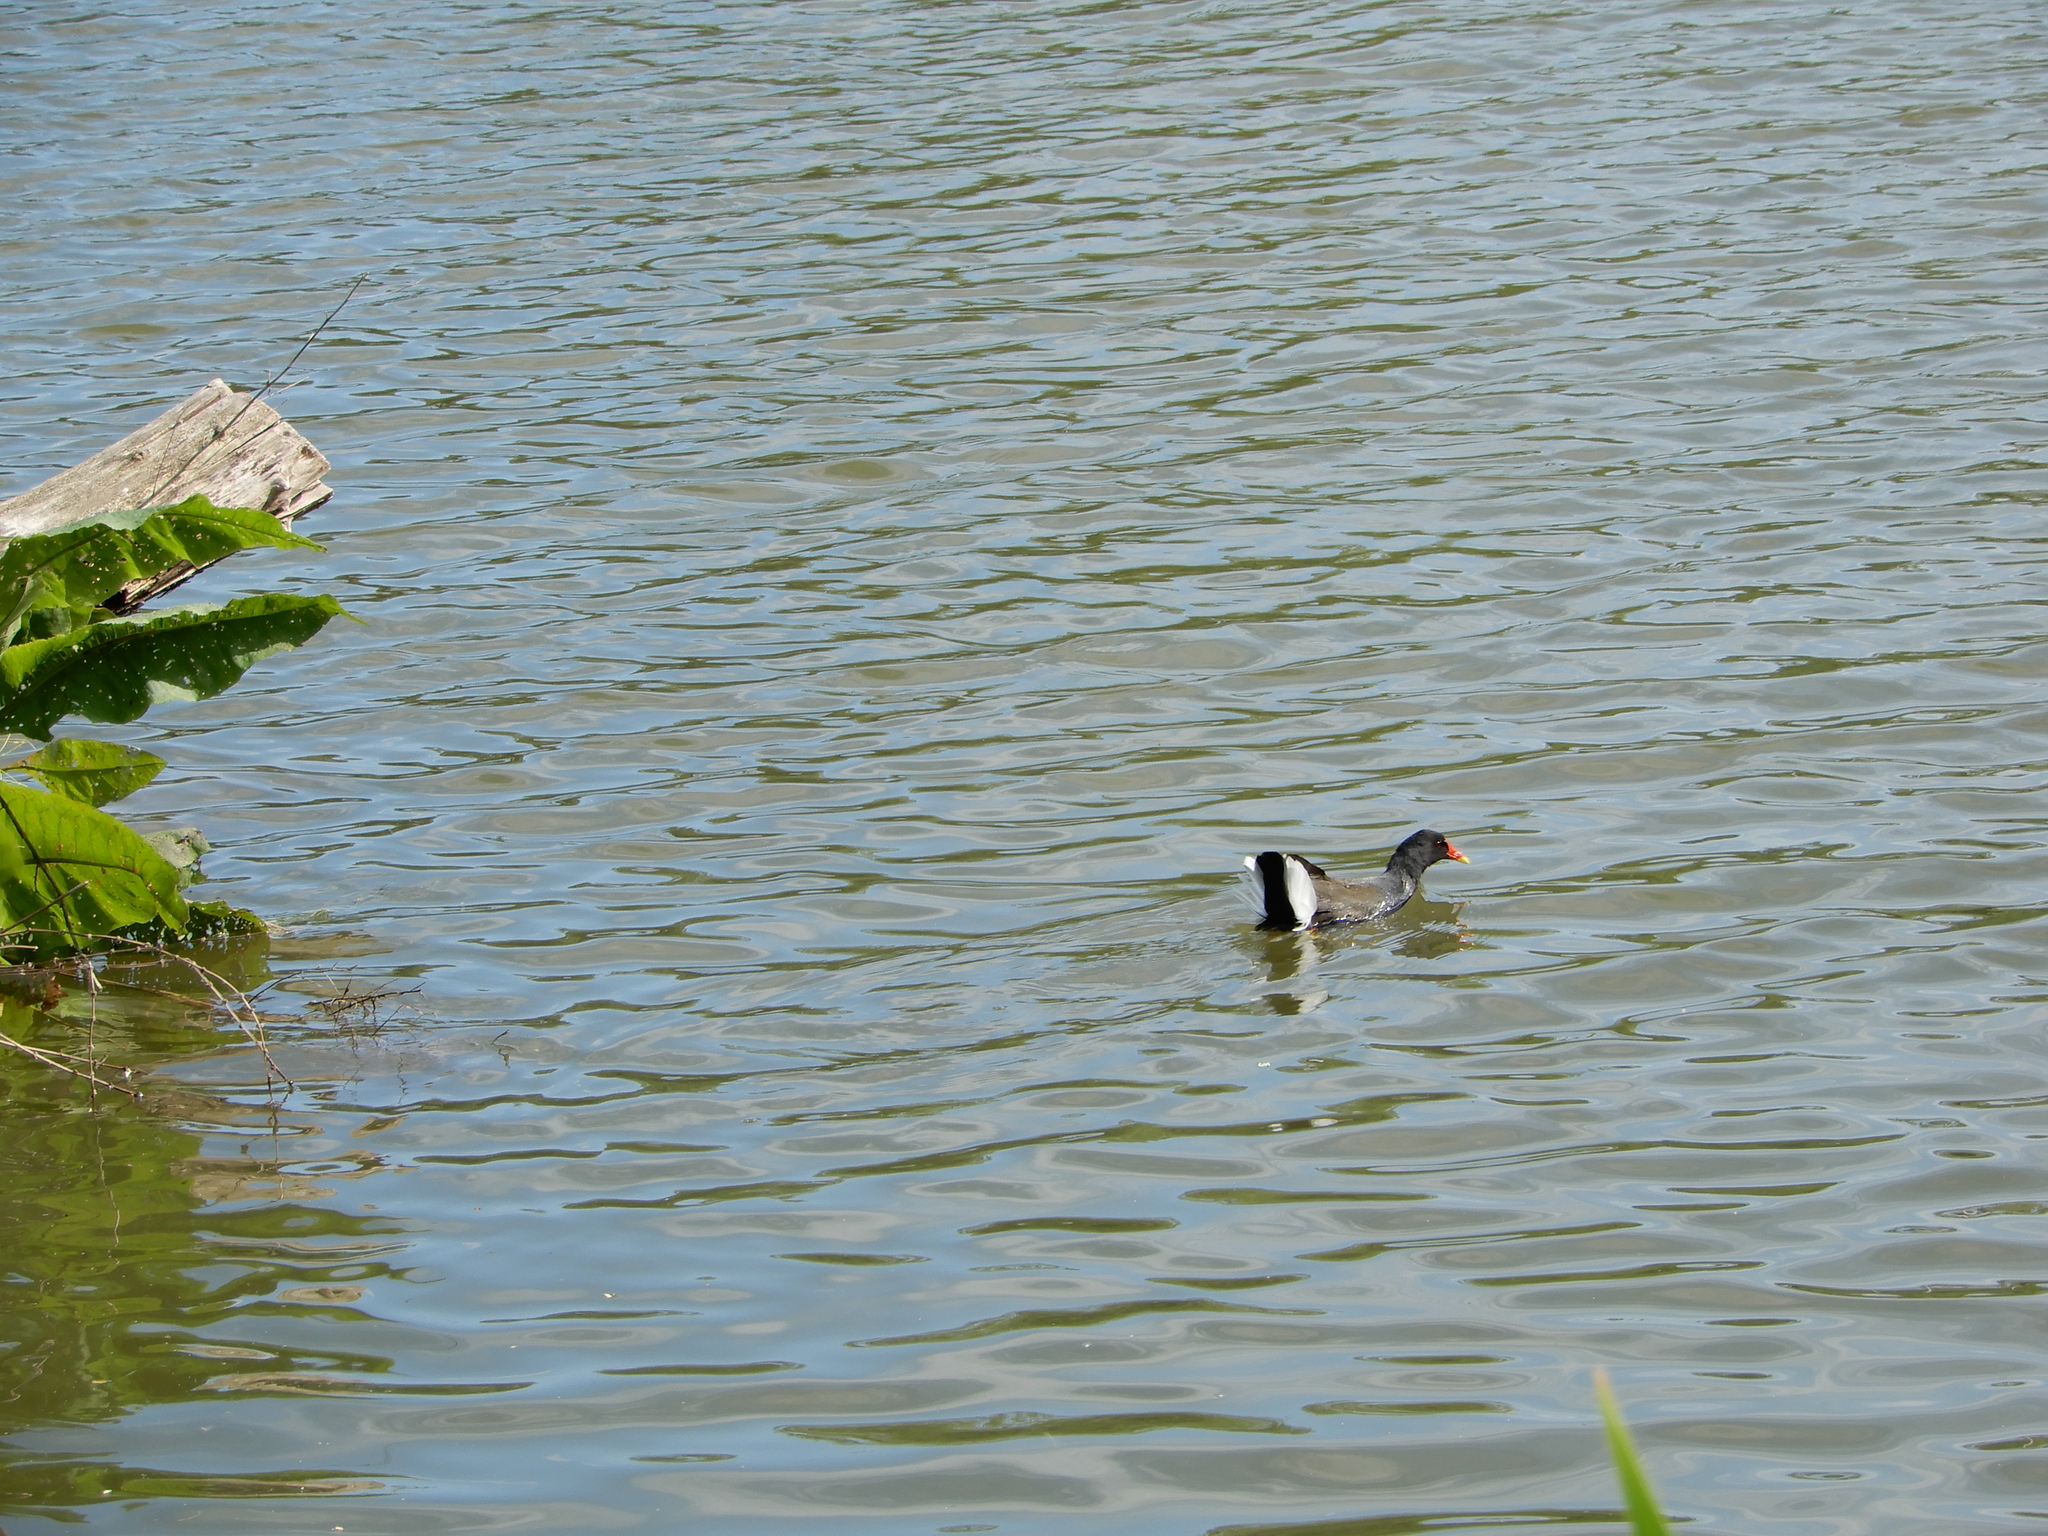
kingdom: Animalia
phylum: Chordata
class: Aves
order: Gruiformes
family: Rallidae
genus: Gallinula
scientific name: Gallinula chloropus
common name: Common moorhen
